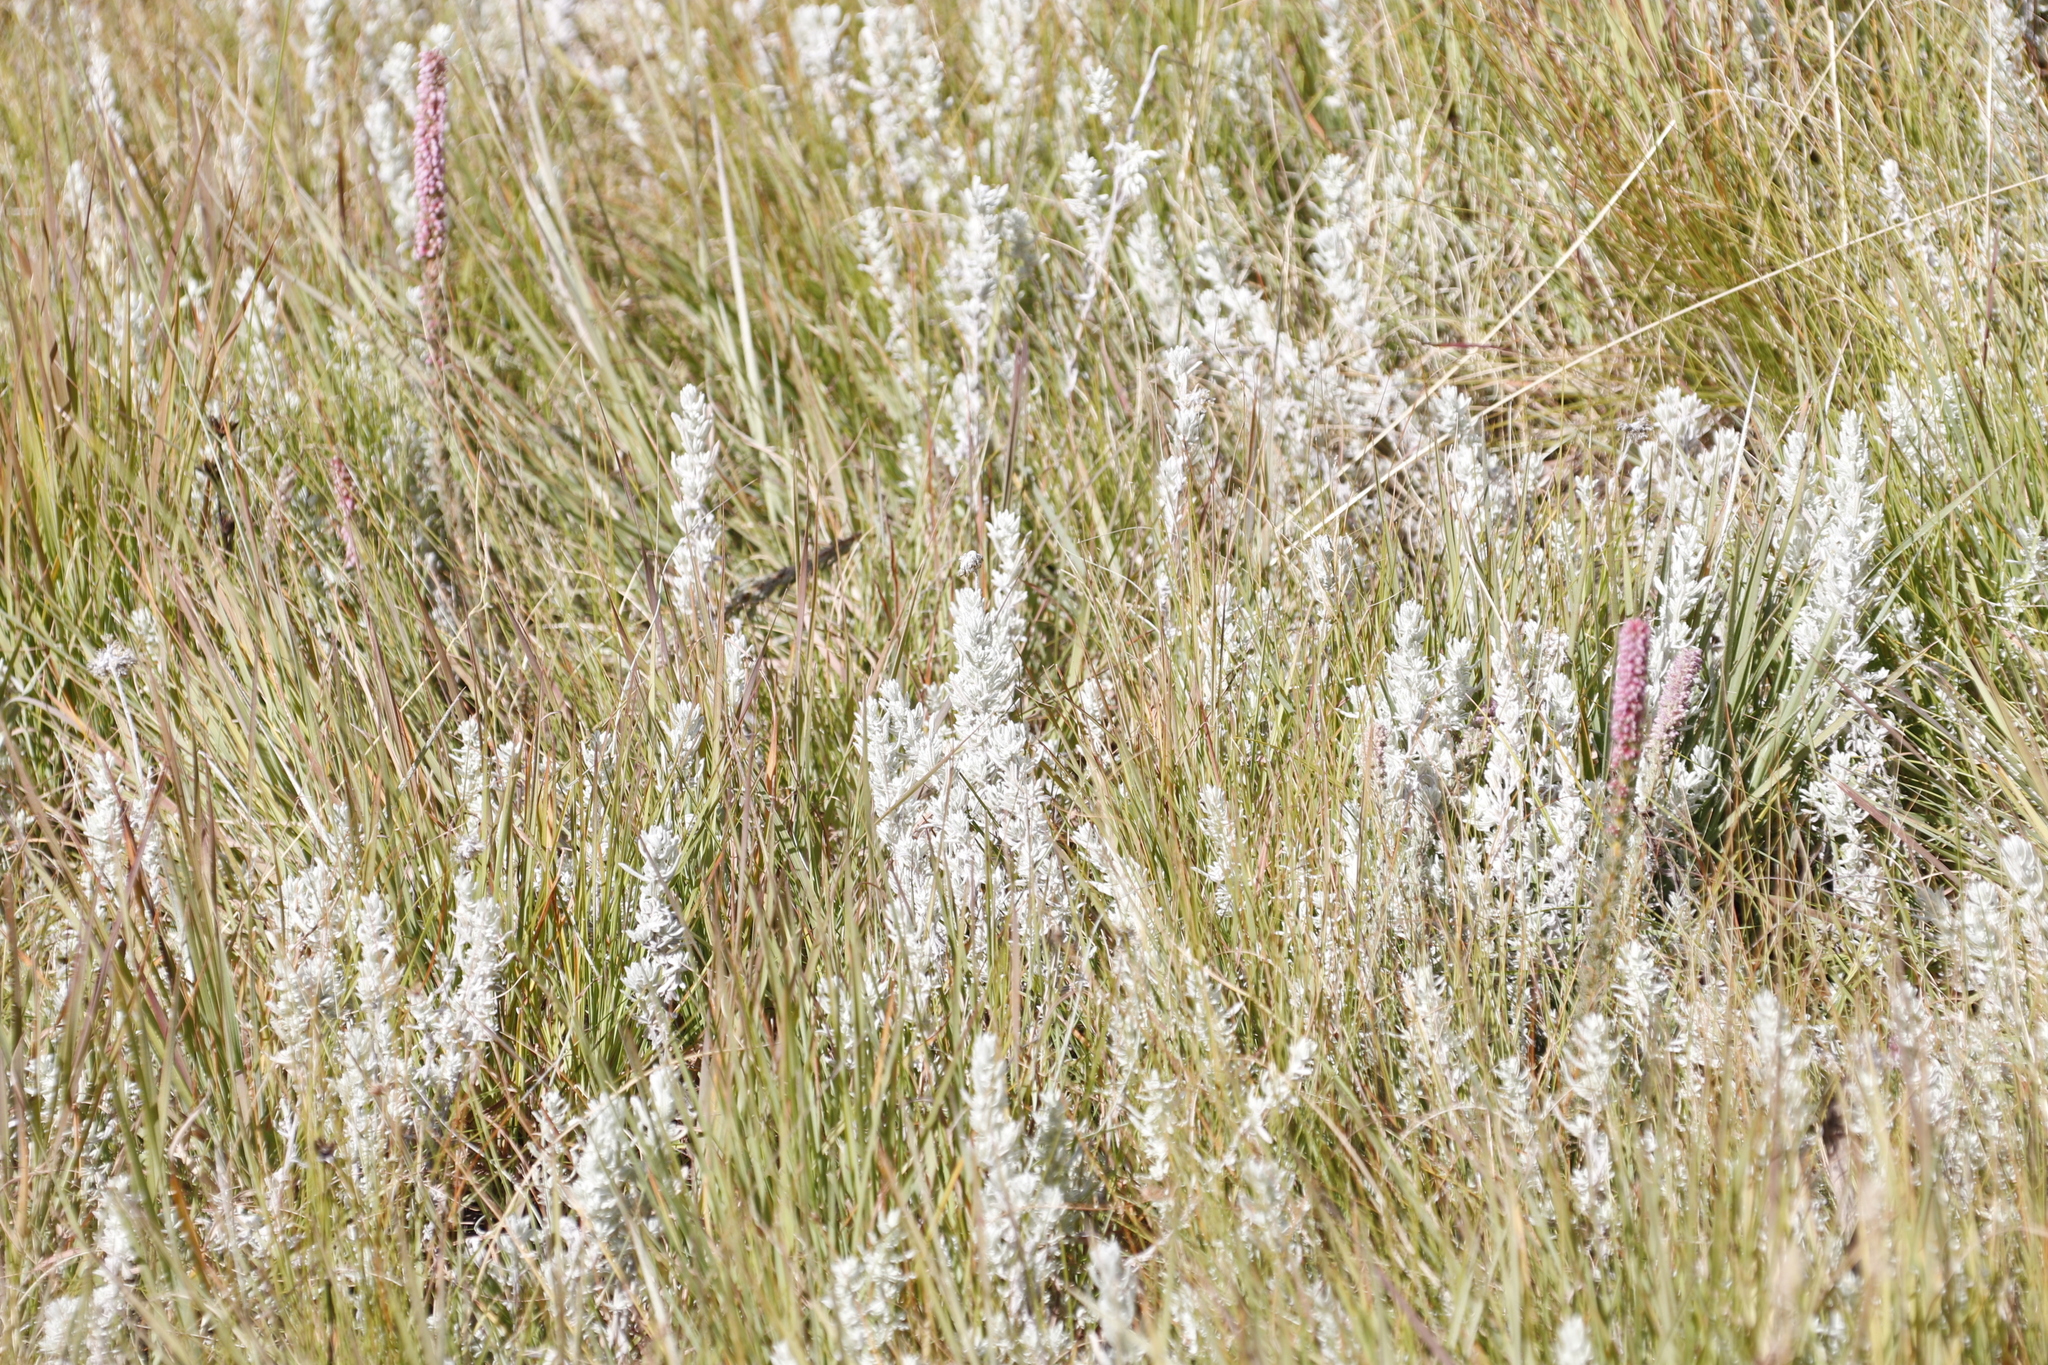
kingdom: Plantae
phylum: Tracheophyta
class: Magnoliopsida
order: Ericales
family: Ericaceae
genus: Erica
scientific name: Erica alopecurus
